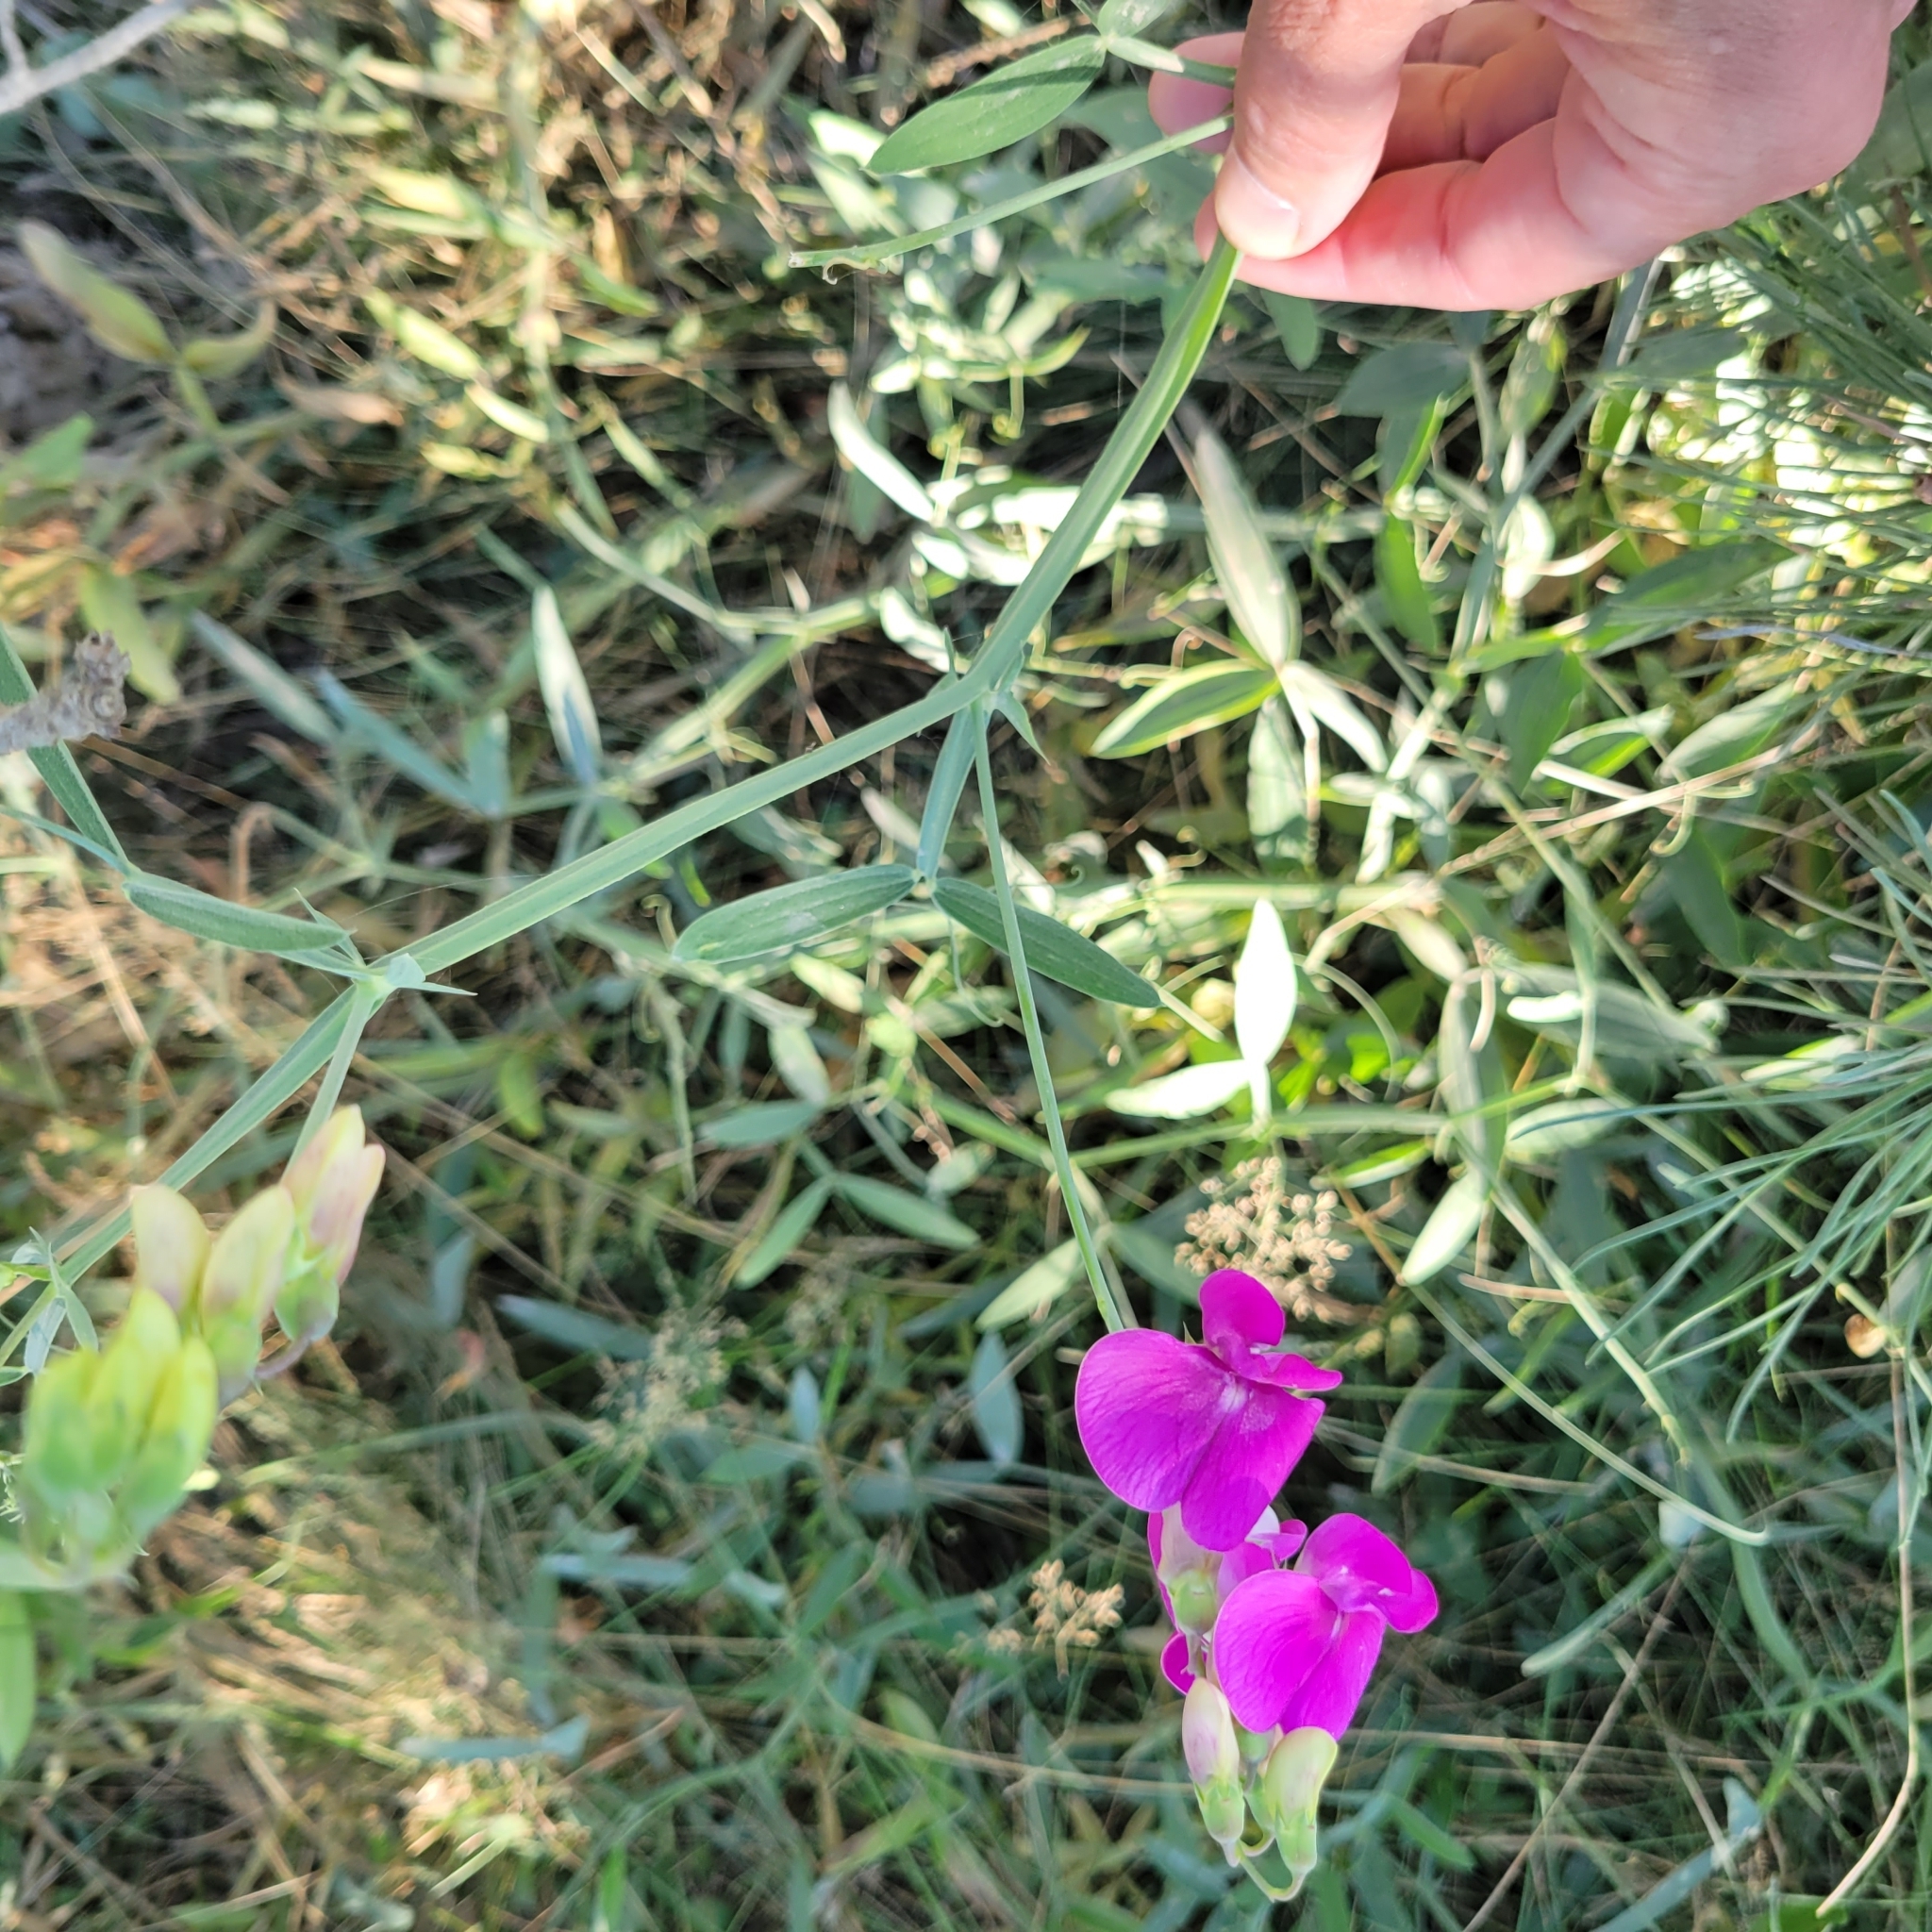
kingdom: Plantae
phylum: Tracheophyta
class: Magnoliopsida
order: Fabales
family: Fabaceae
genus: Lathyrus
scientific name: Lathyrus latifolius
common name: Perennial pea
